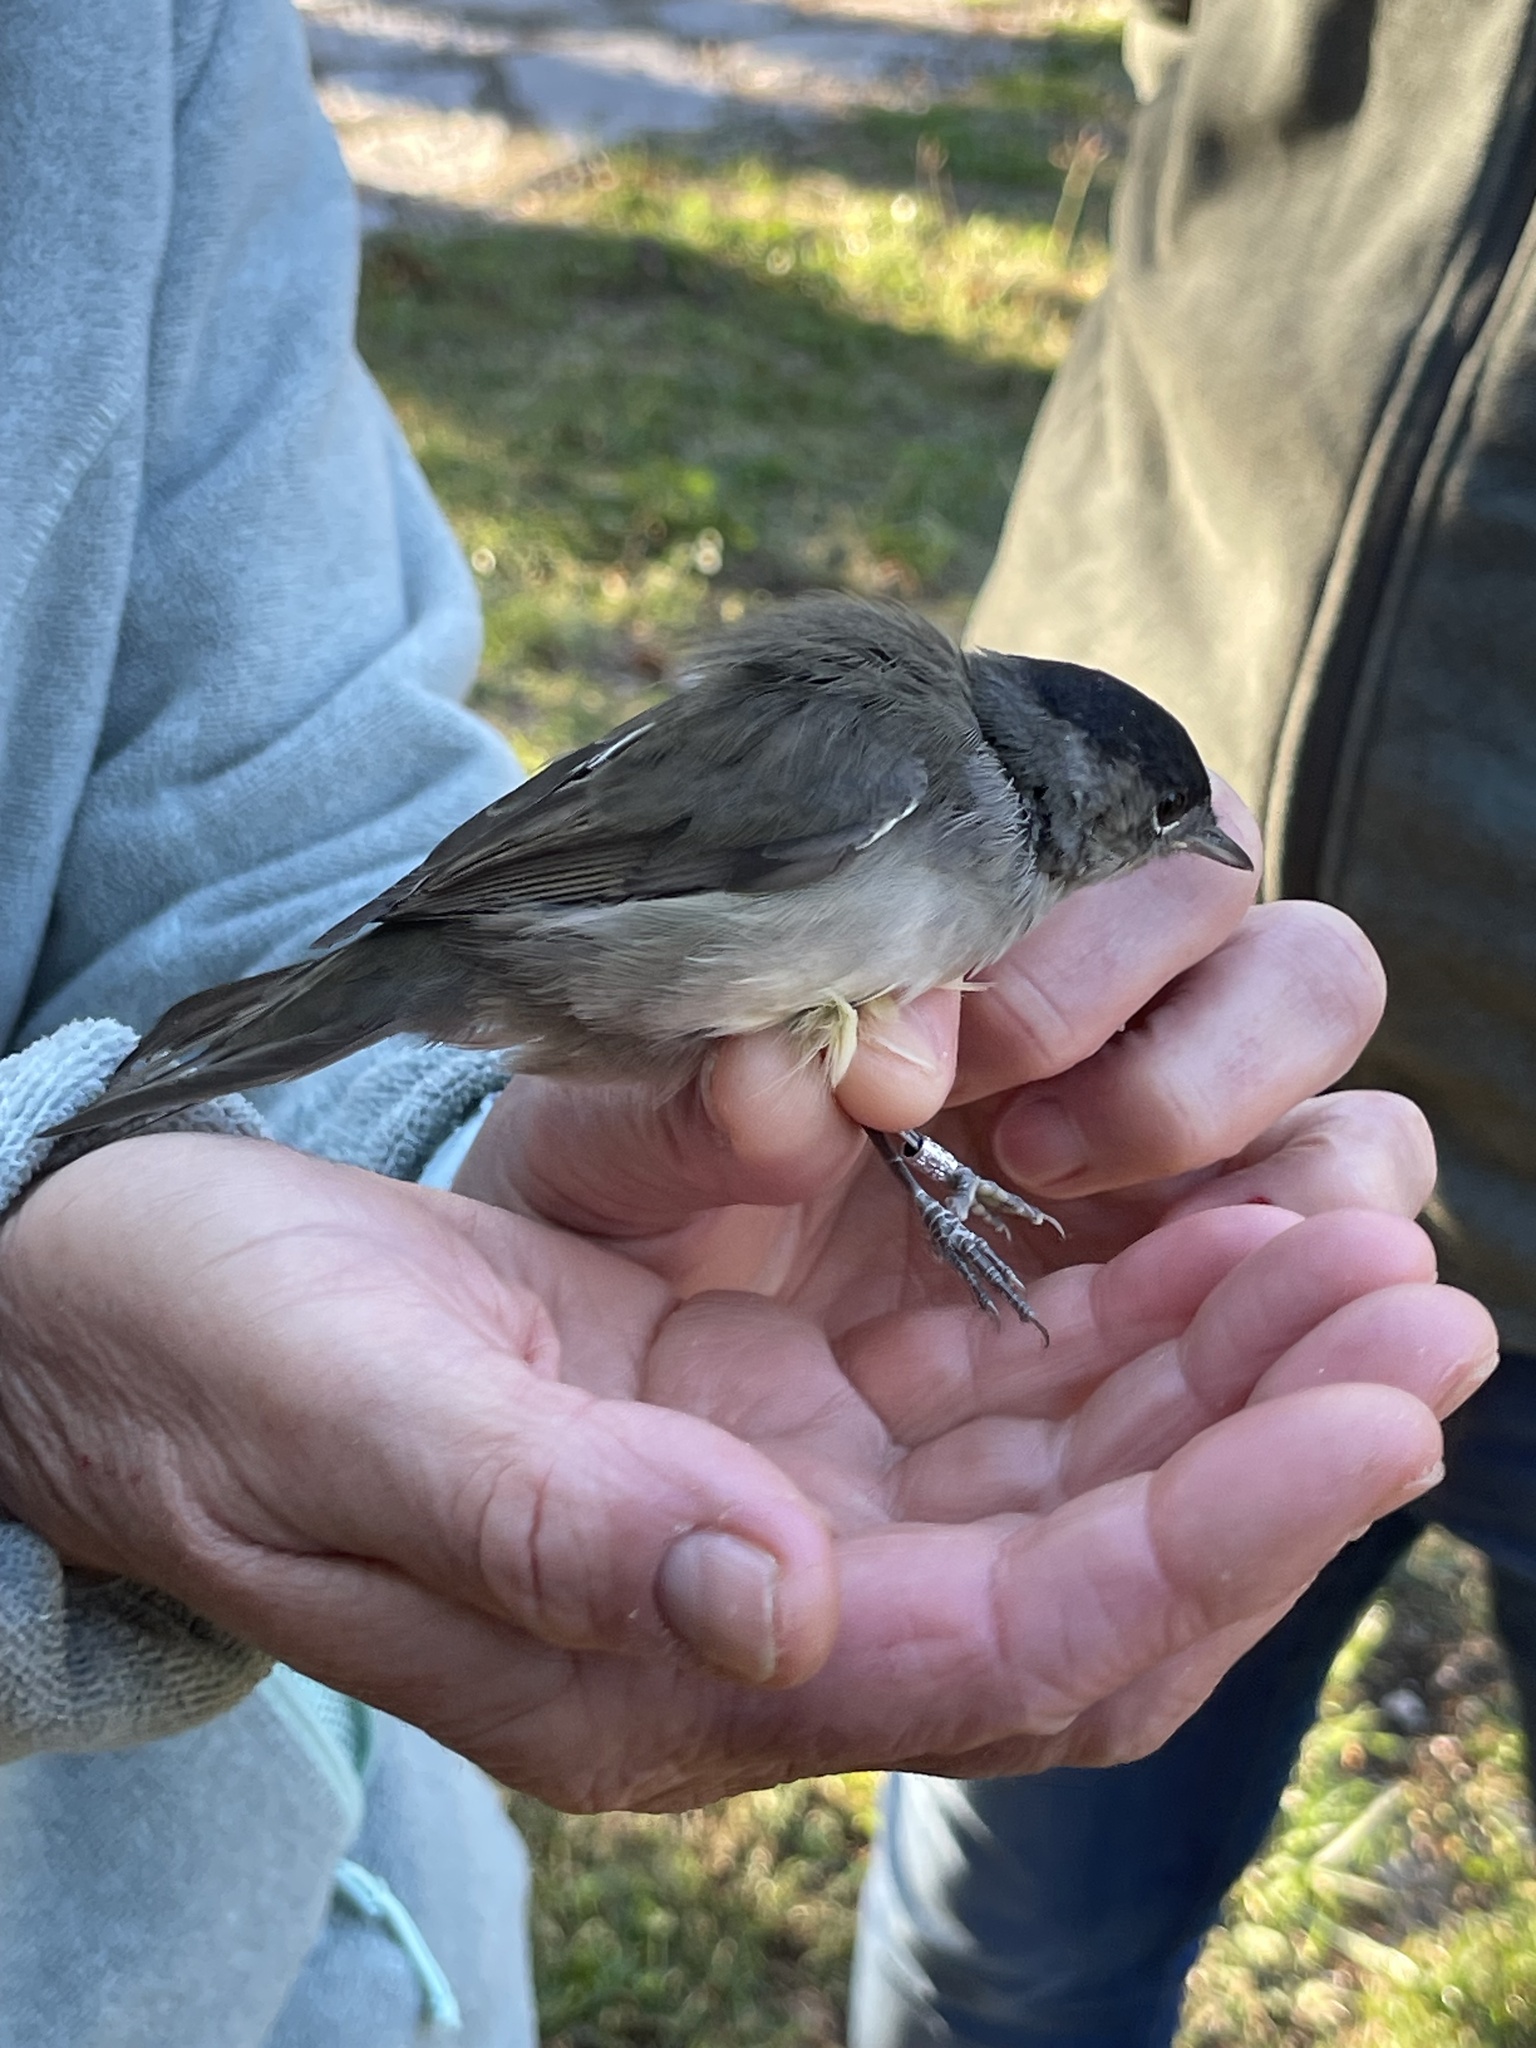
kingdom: Animalia
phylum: Chordata
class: Aves
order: Passeriformes
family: Sylviidae
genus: Sylvia
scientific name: Sylvia atricapilla
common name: Eurasian blackcap
